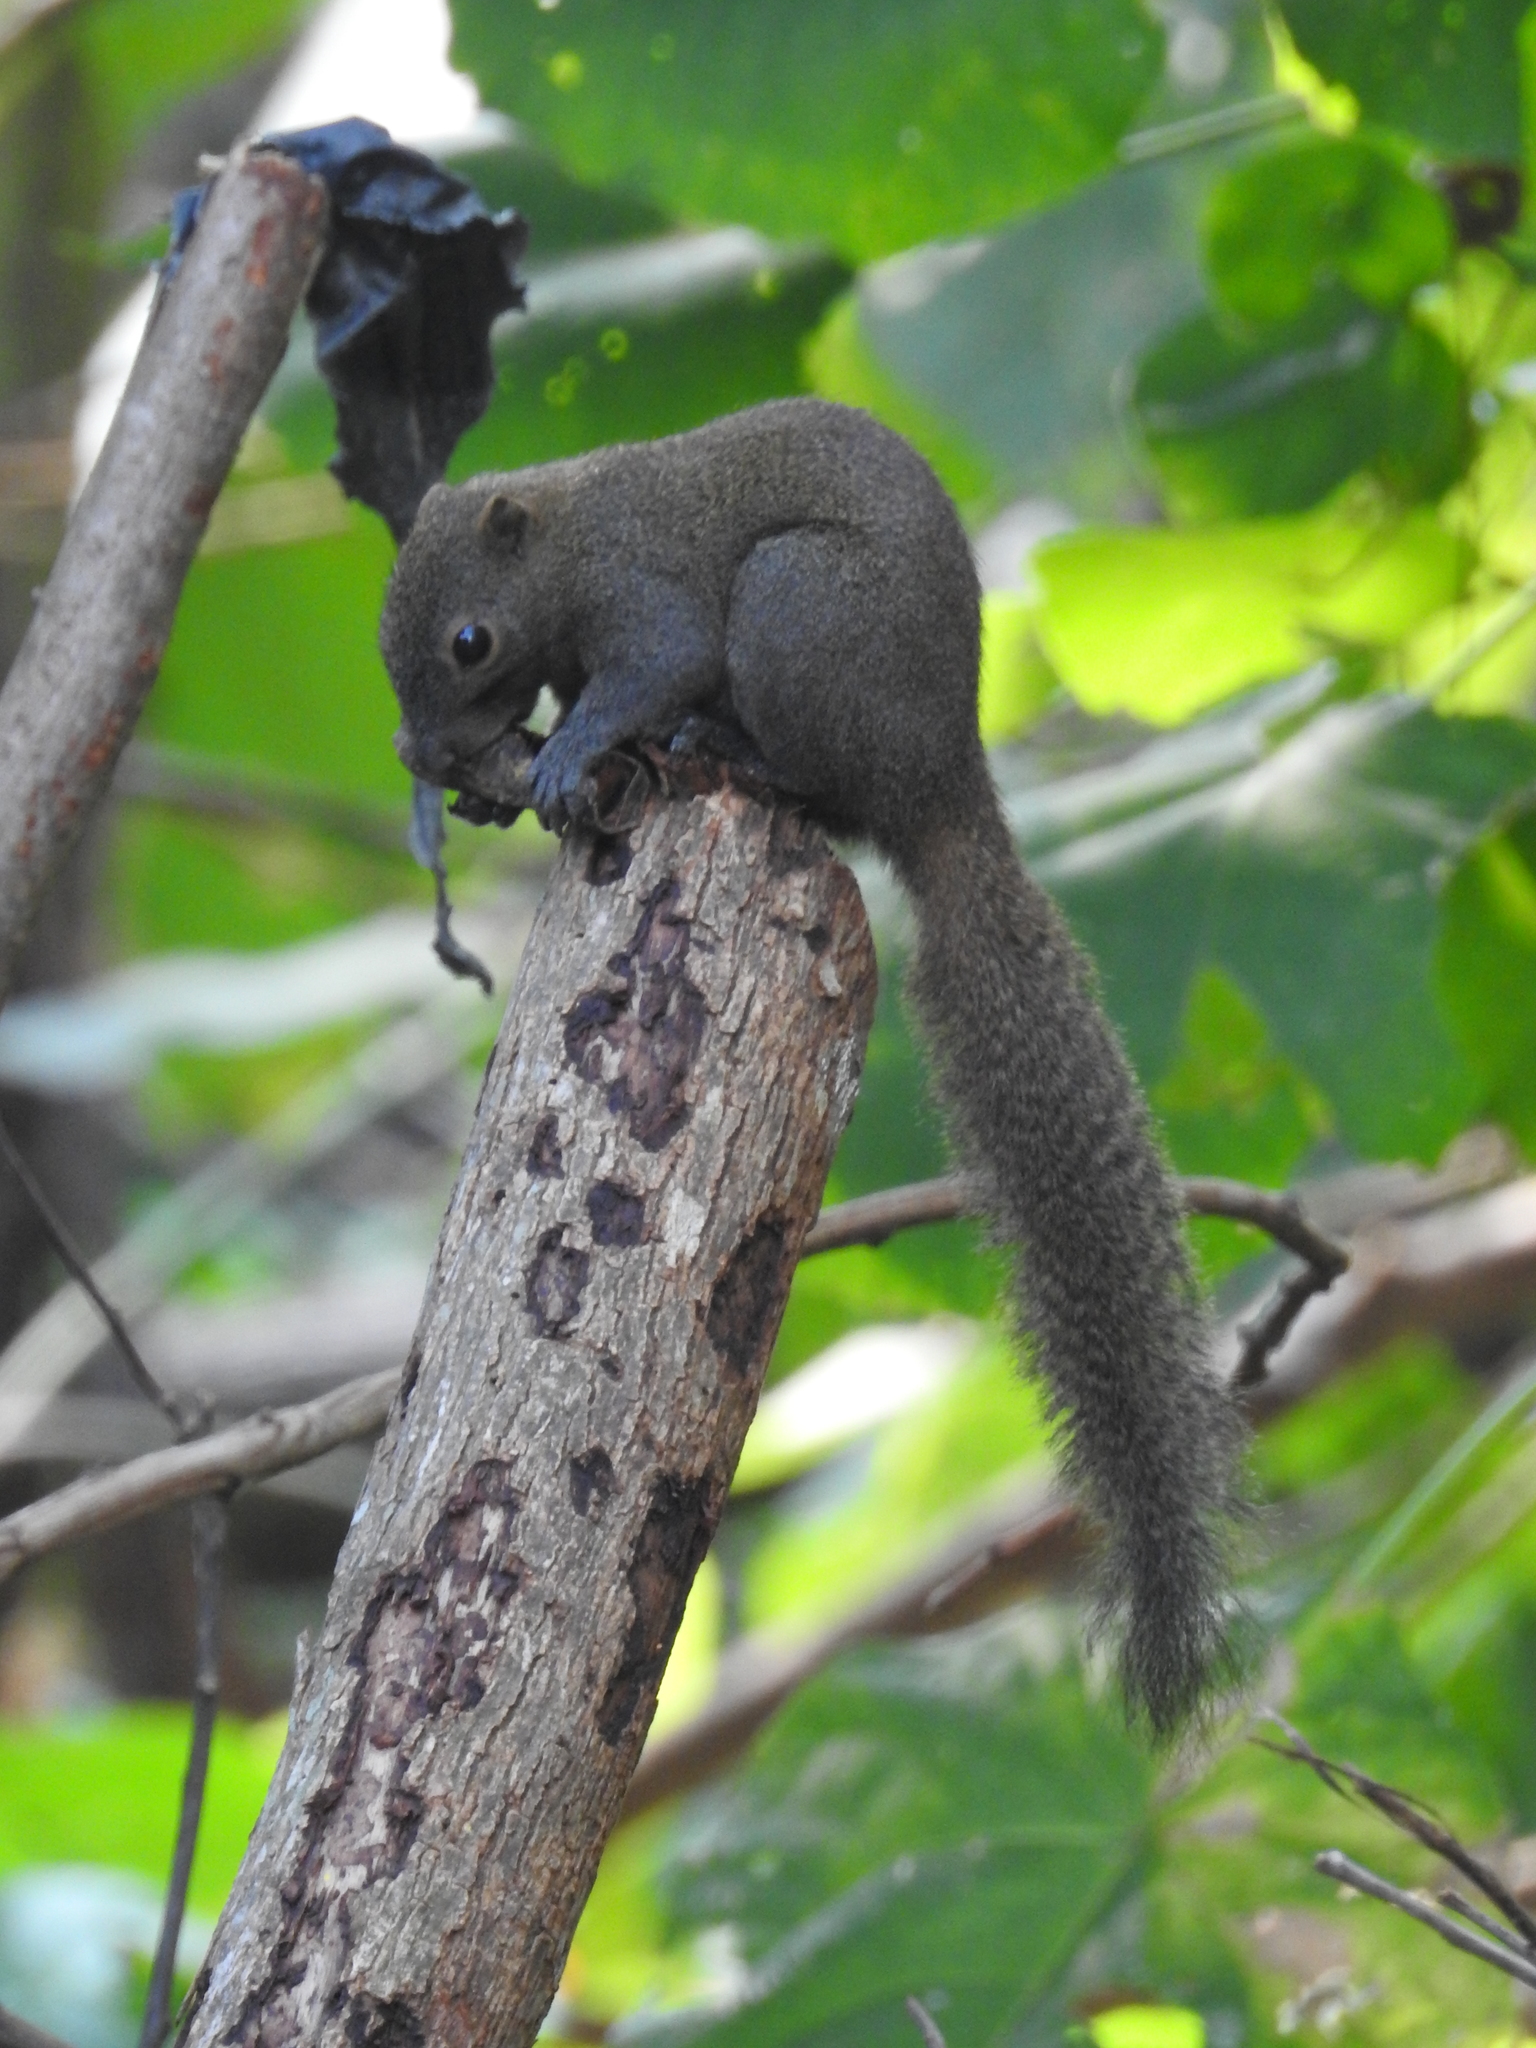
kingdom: Animalia
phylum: Chordata
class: Mammalia
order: Rodentia
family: Sciuridae
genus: Callosciurus
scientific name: Callosciurus caniceps
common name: Gray-bellied squirrel
